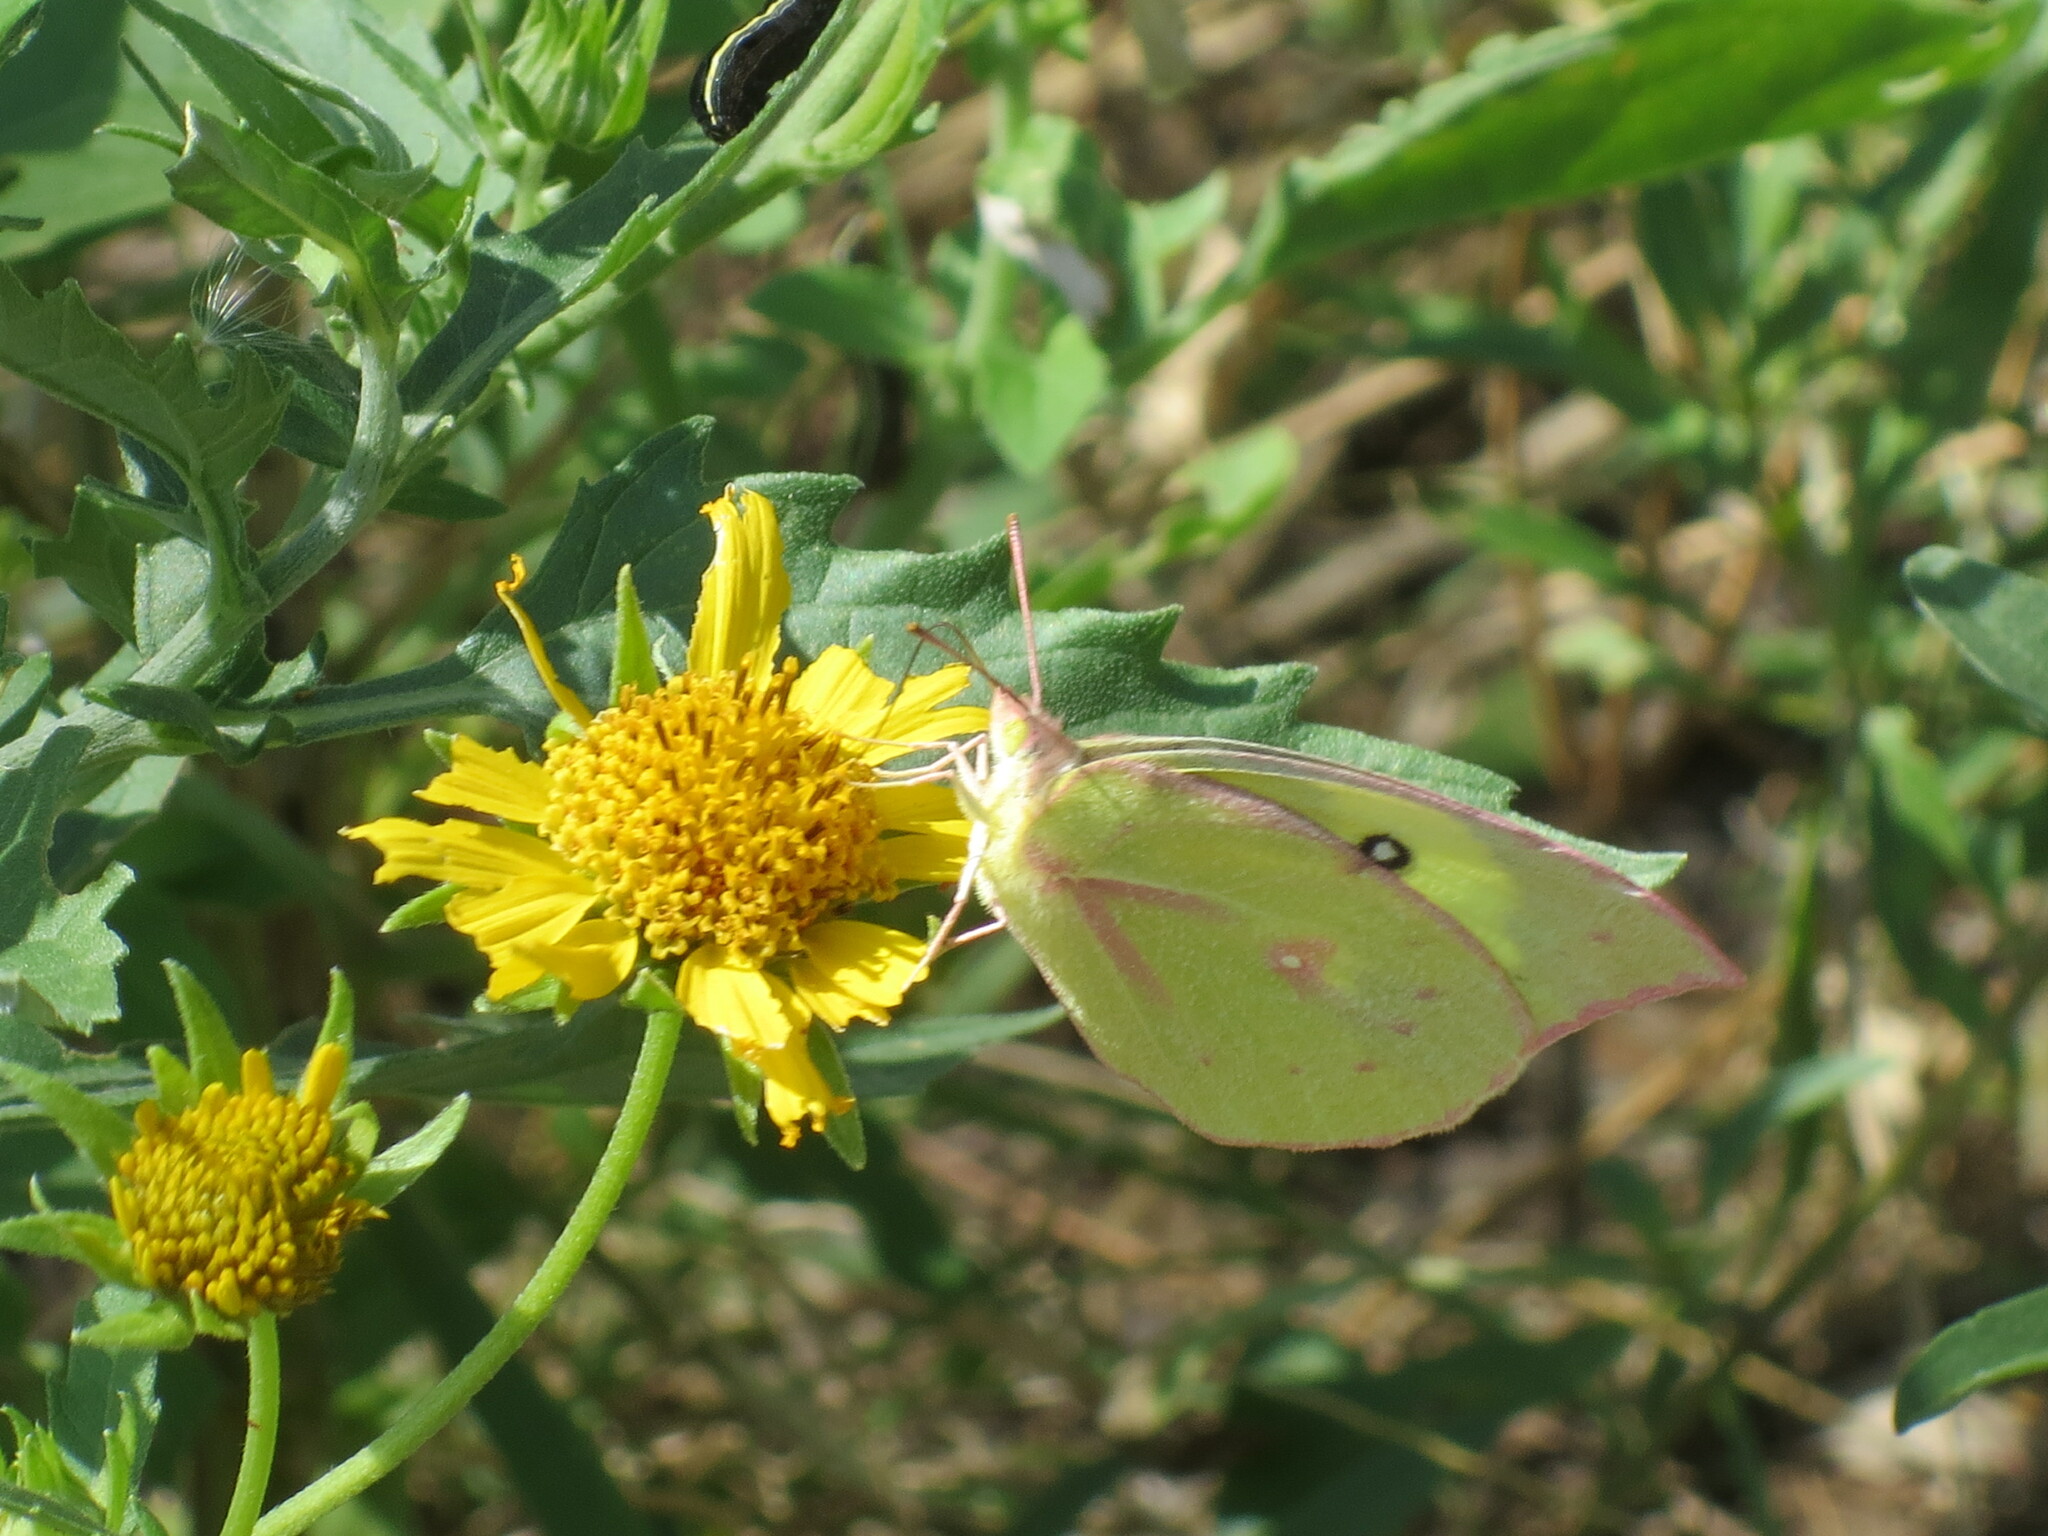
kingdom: Animalia
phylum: Arthropoda
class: Insecta
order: Lepidoptera
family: Pieridae
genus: Zerene
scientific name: Zerene cesonia
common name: Southern dogface
